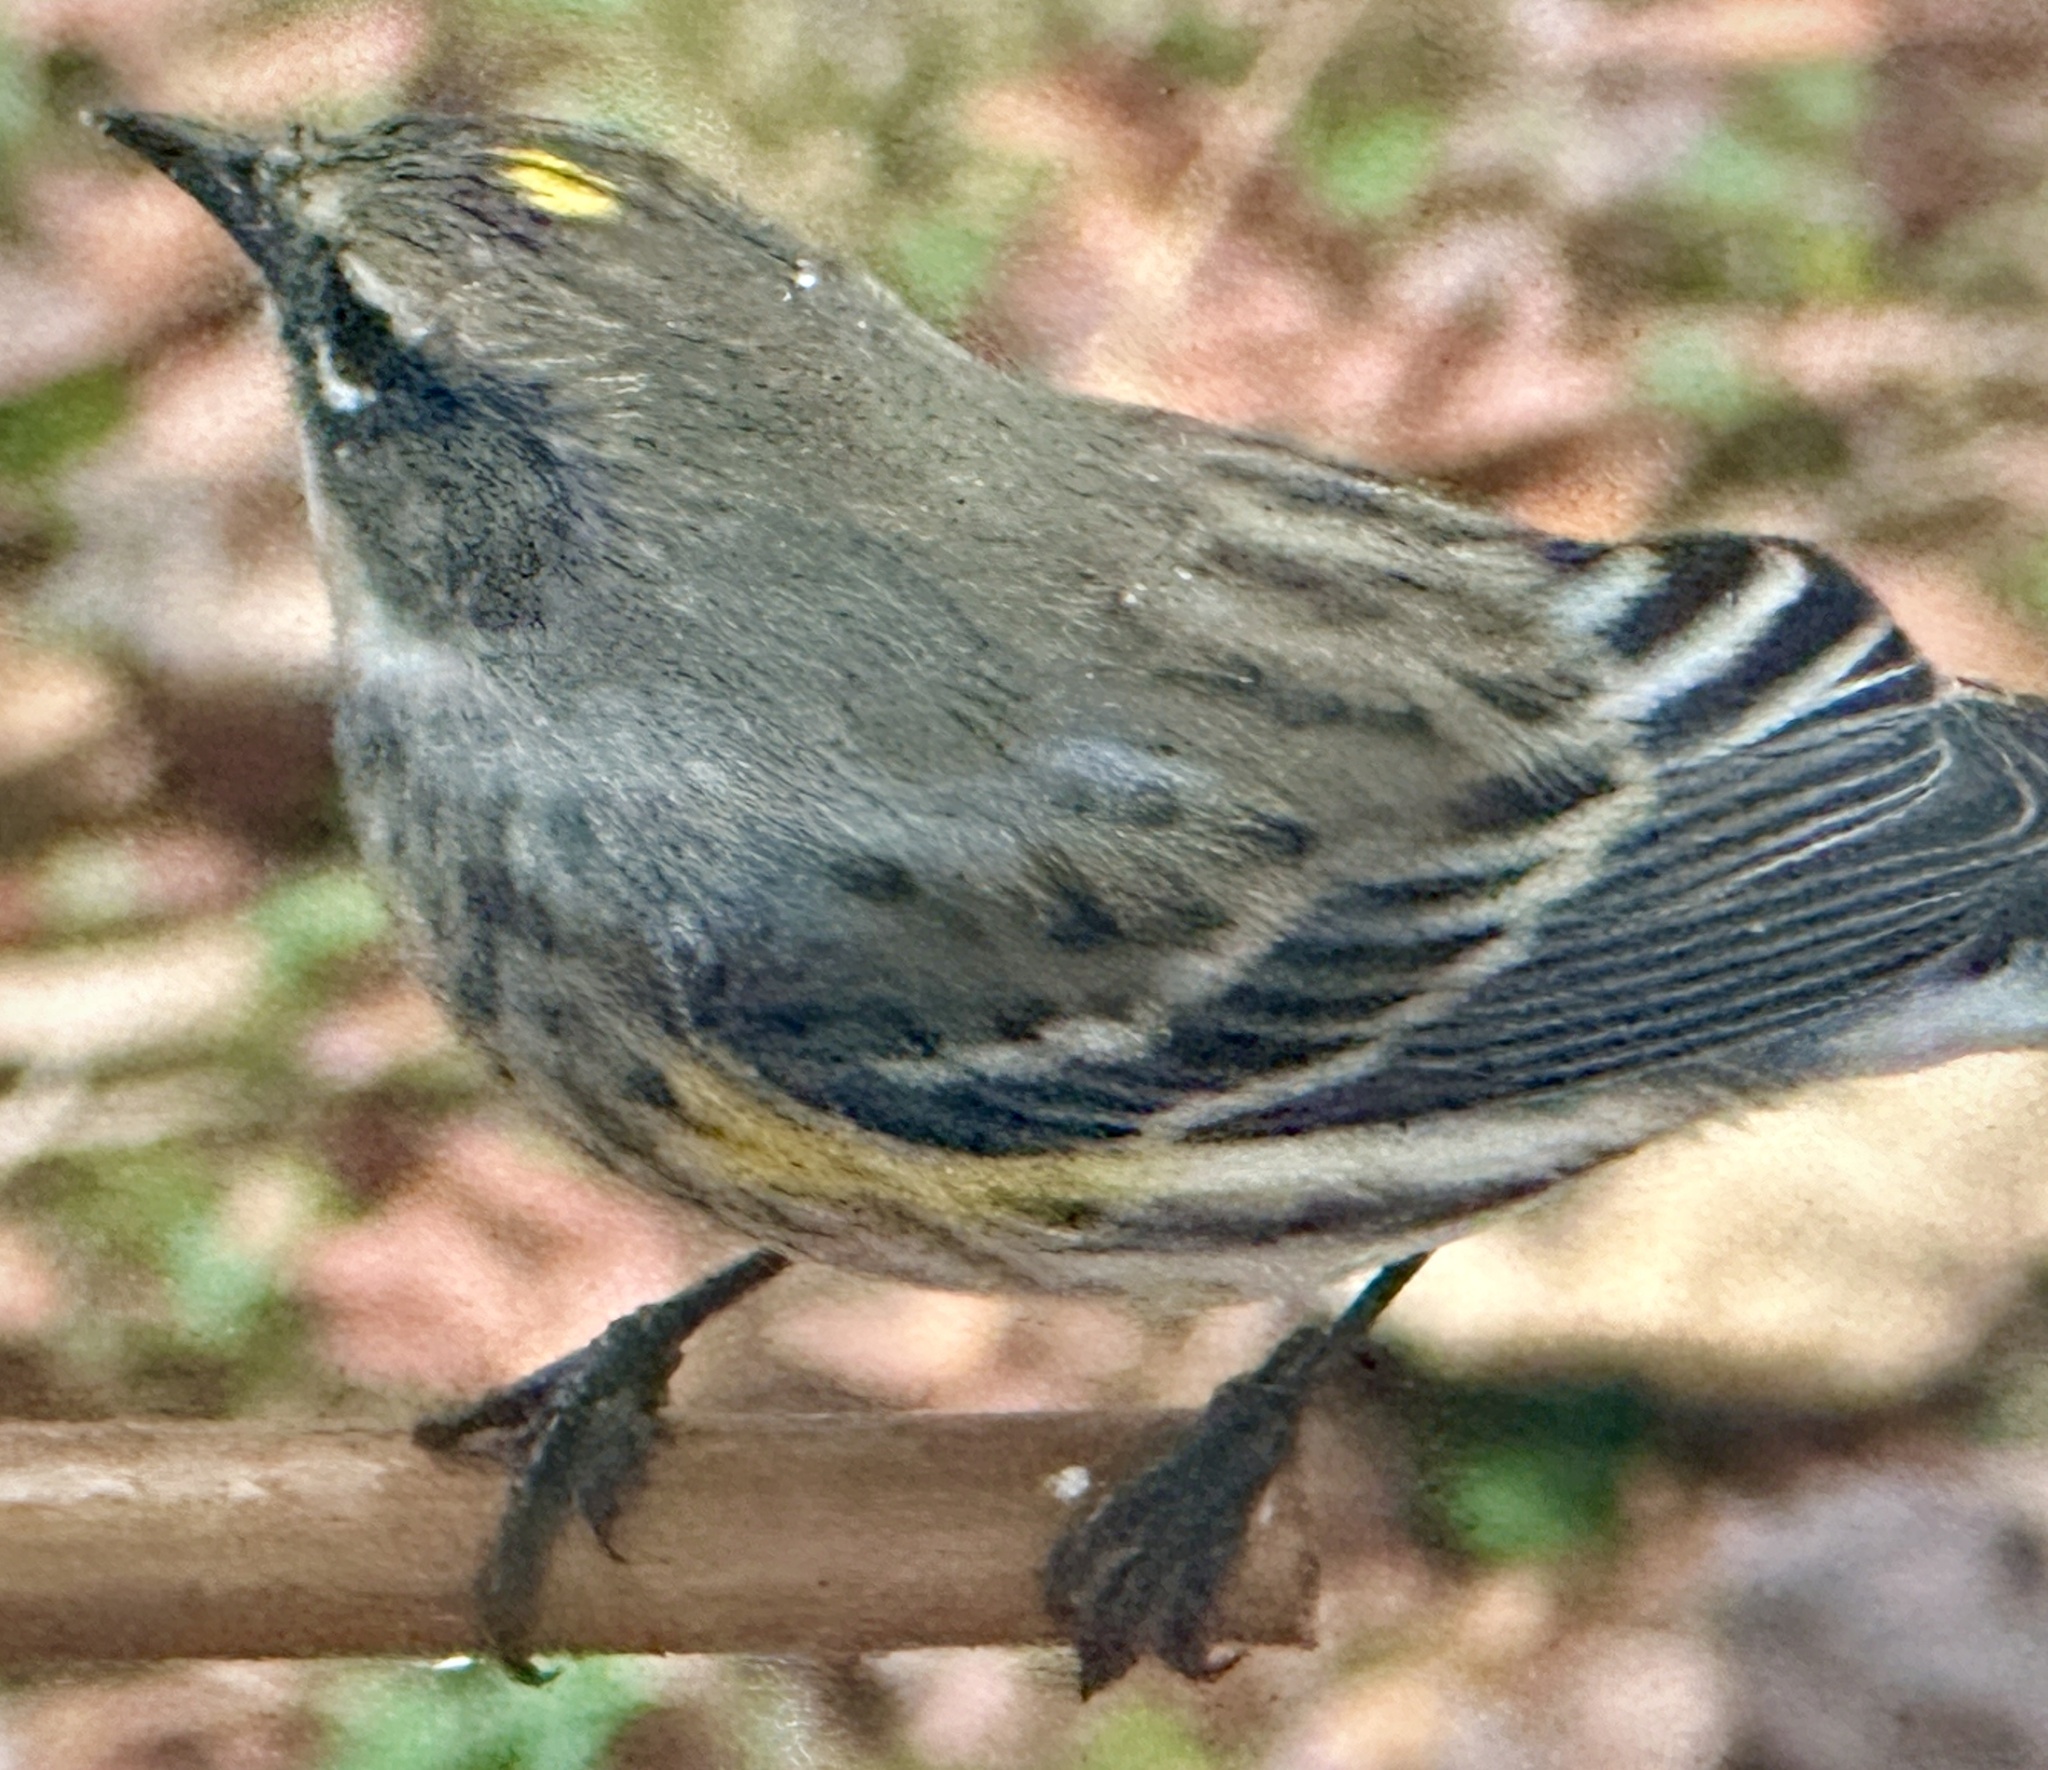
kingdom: Animalia
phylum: Chordata
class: Aves
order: Passeriformes
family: Parulidae
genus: Setophaga
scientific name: Setophaga coronata
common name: Myrtle warbler
